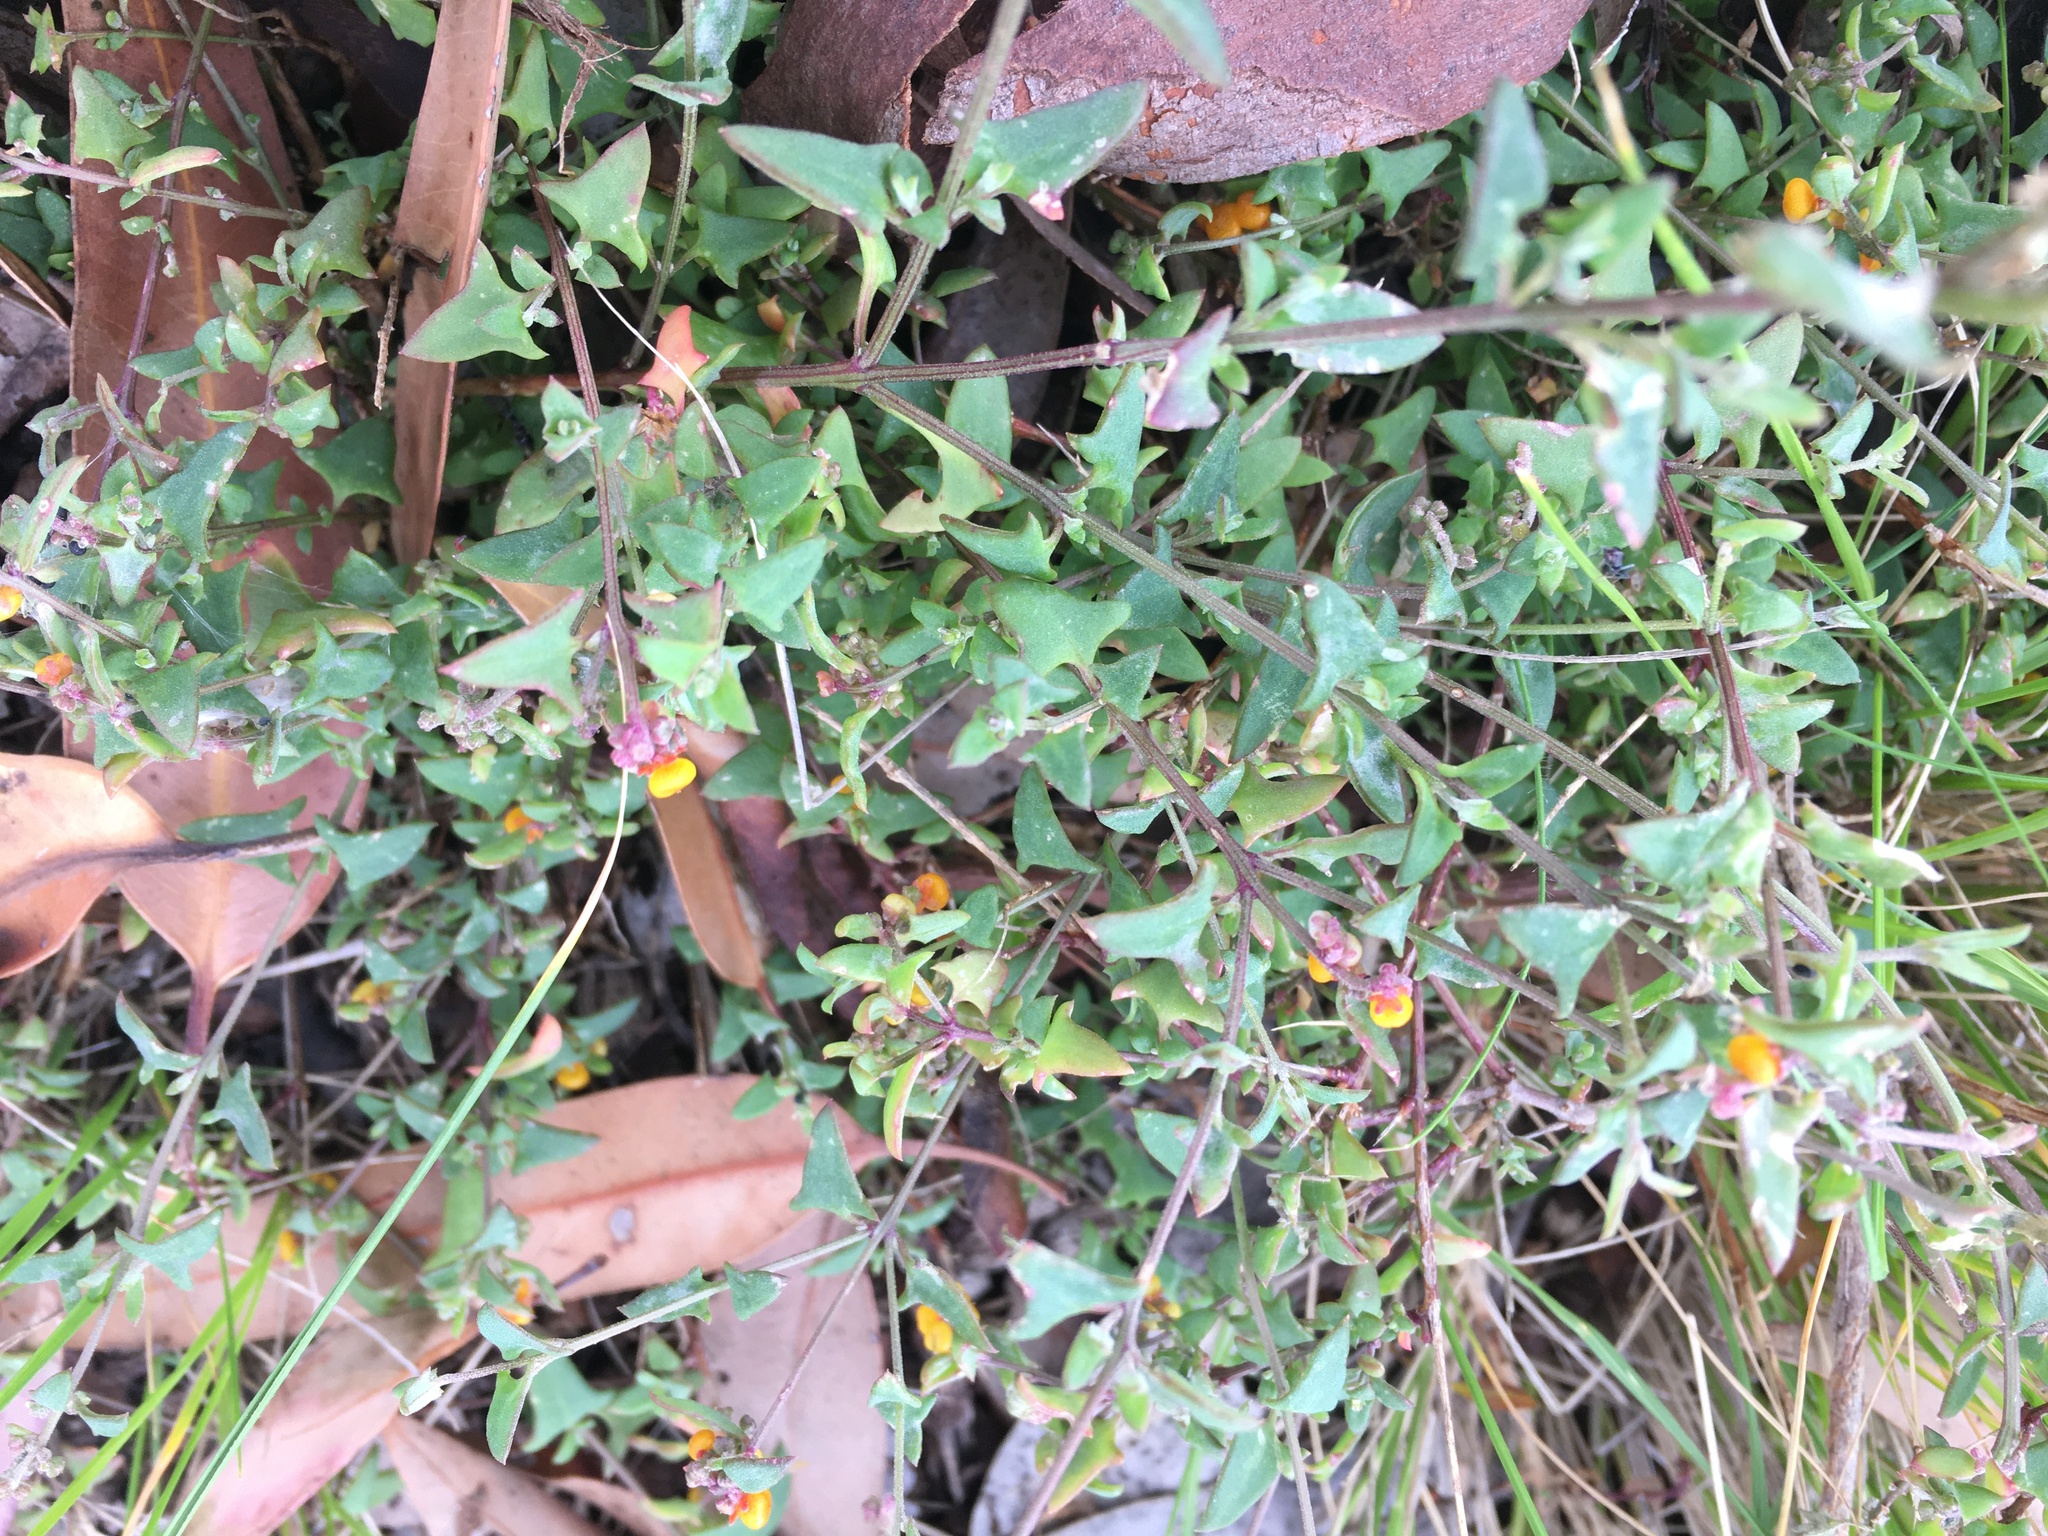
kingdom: Plantae
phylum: Tracheophyta
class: Magnoliopsida
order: Caryophyllales
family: Amaranthaceae
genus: Chenopodium
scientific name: Chenopodium nutans
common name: Climbing-saltbush
